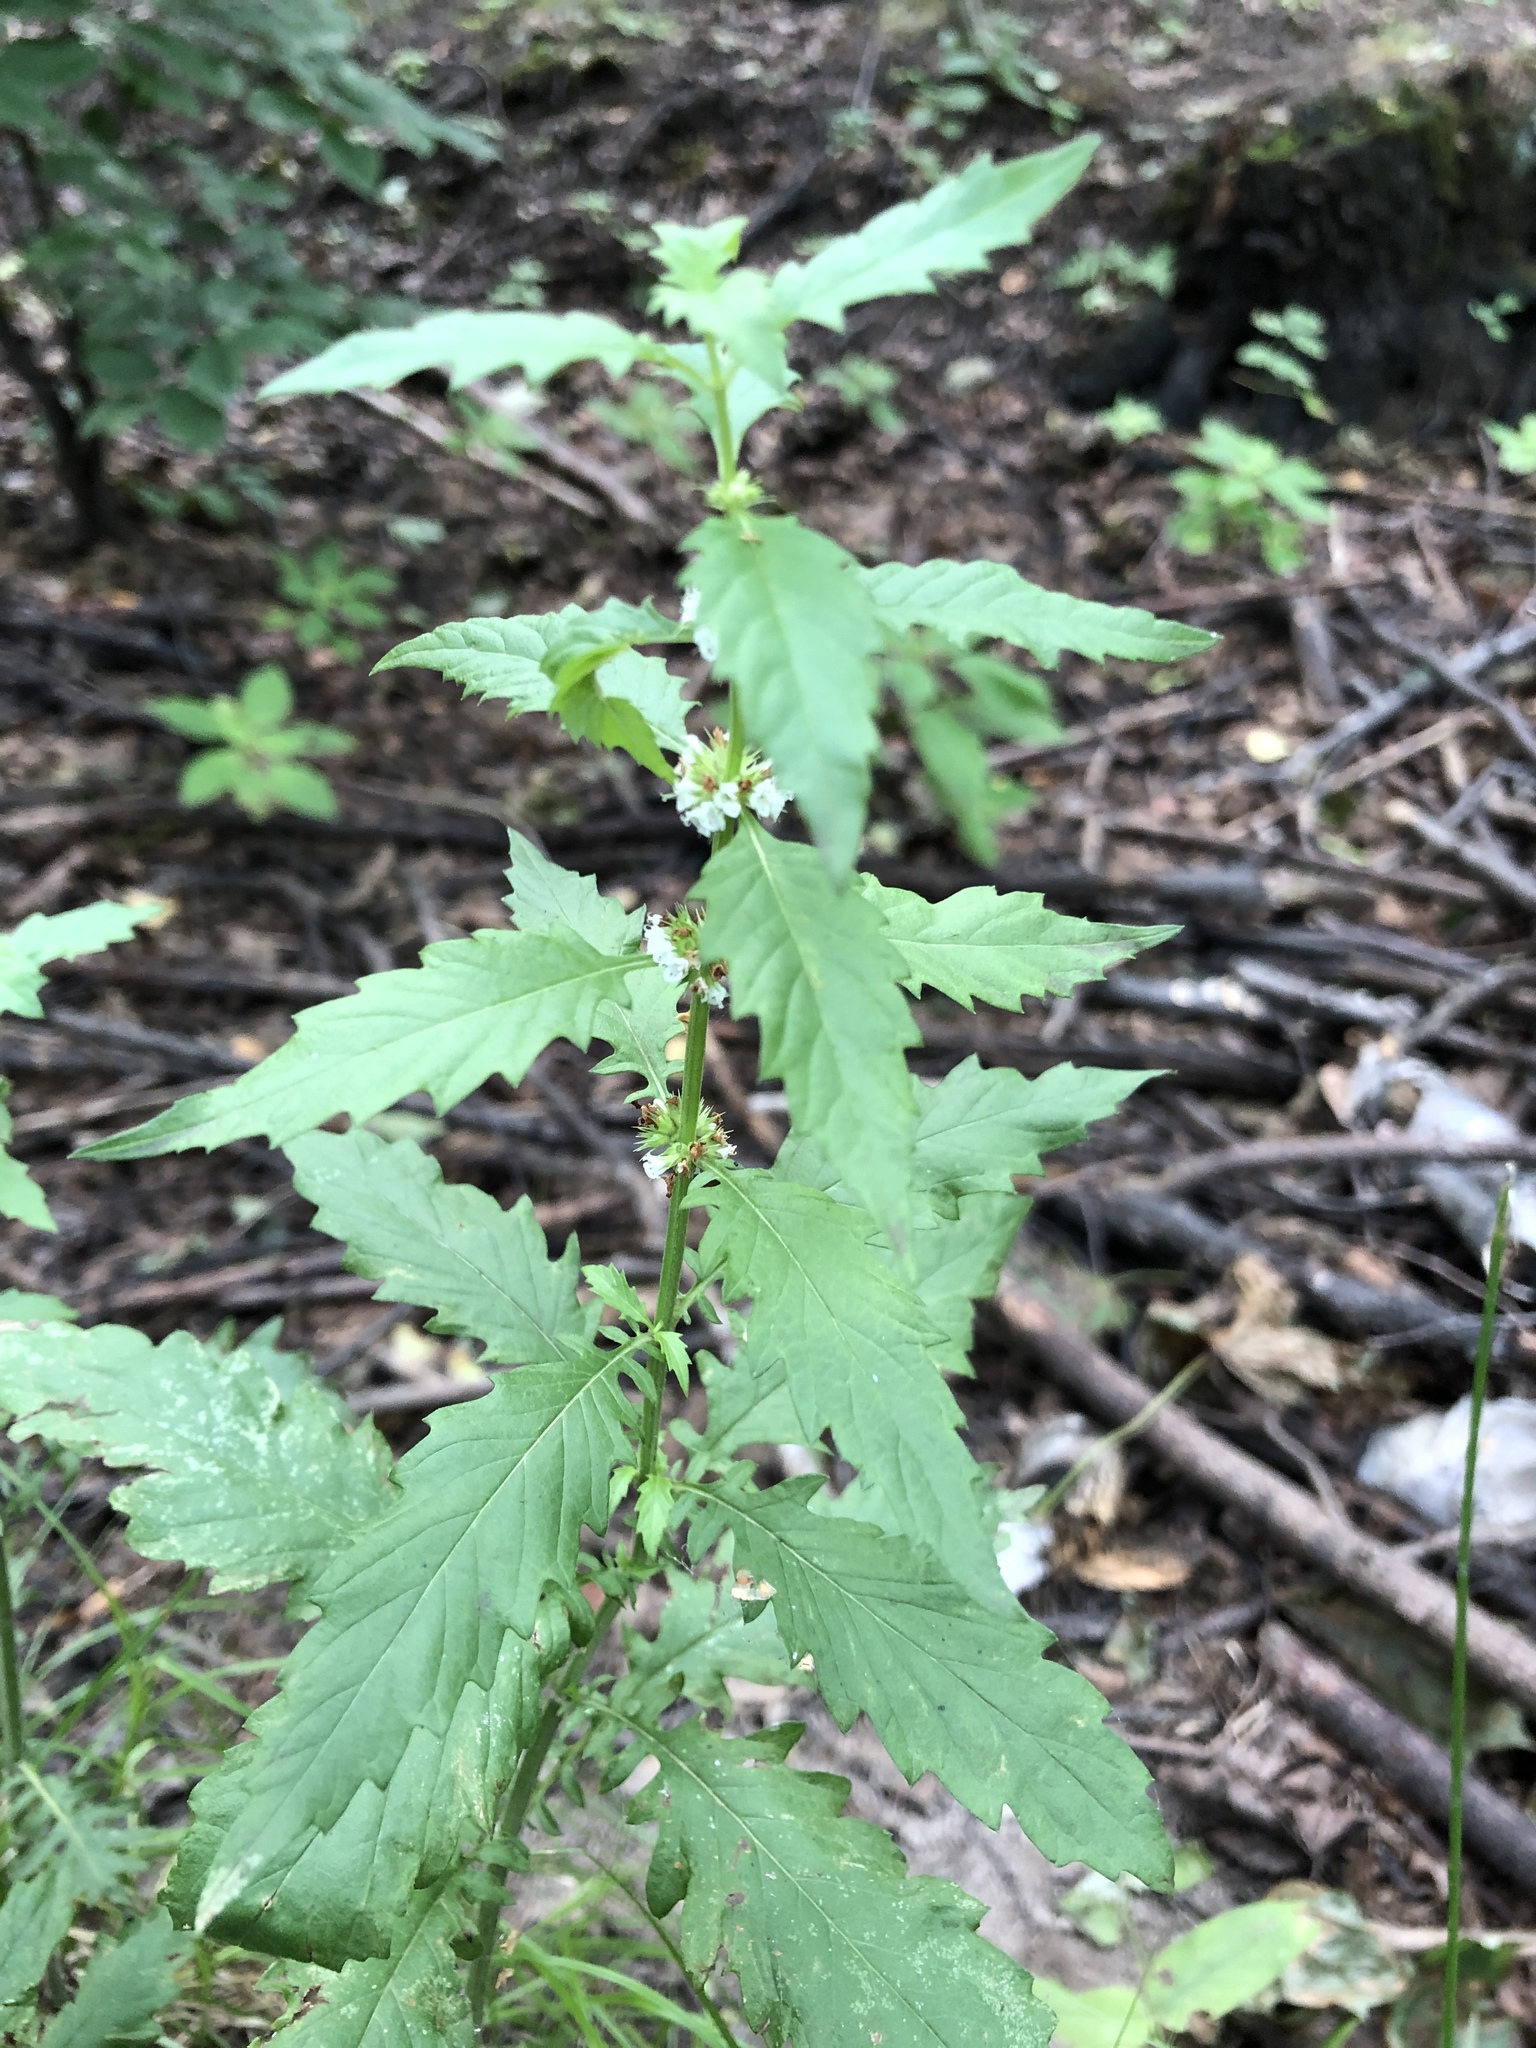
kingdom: Plantae
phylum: Tracheophyta
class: Magnoliopsida
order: Lamiales
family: Lamiaceae
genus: Lycopus
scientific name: Lycopus europaeus
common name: European bugleweed
